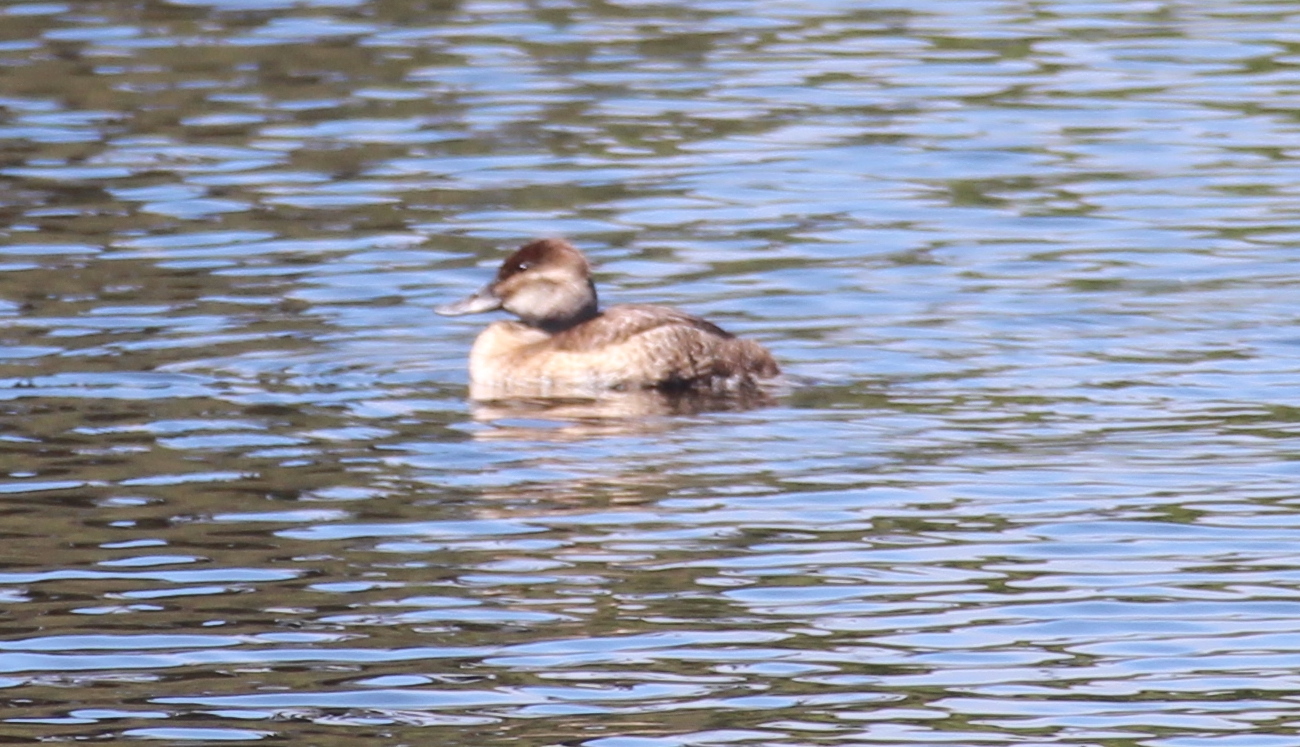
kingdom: Animalia
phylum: Chordata
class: Aves
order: Anseriformes
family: Anatidae
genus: Oxyura
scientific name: Oxyura jamaicensis
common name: Ruddy duck
